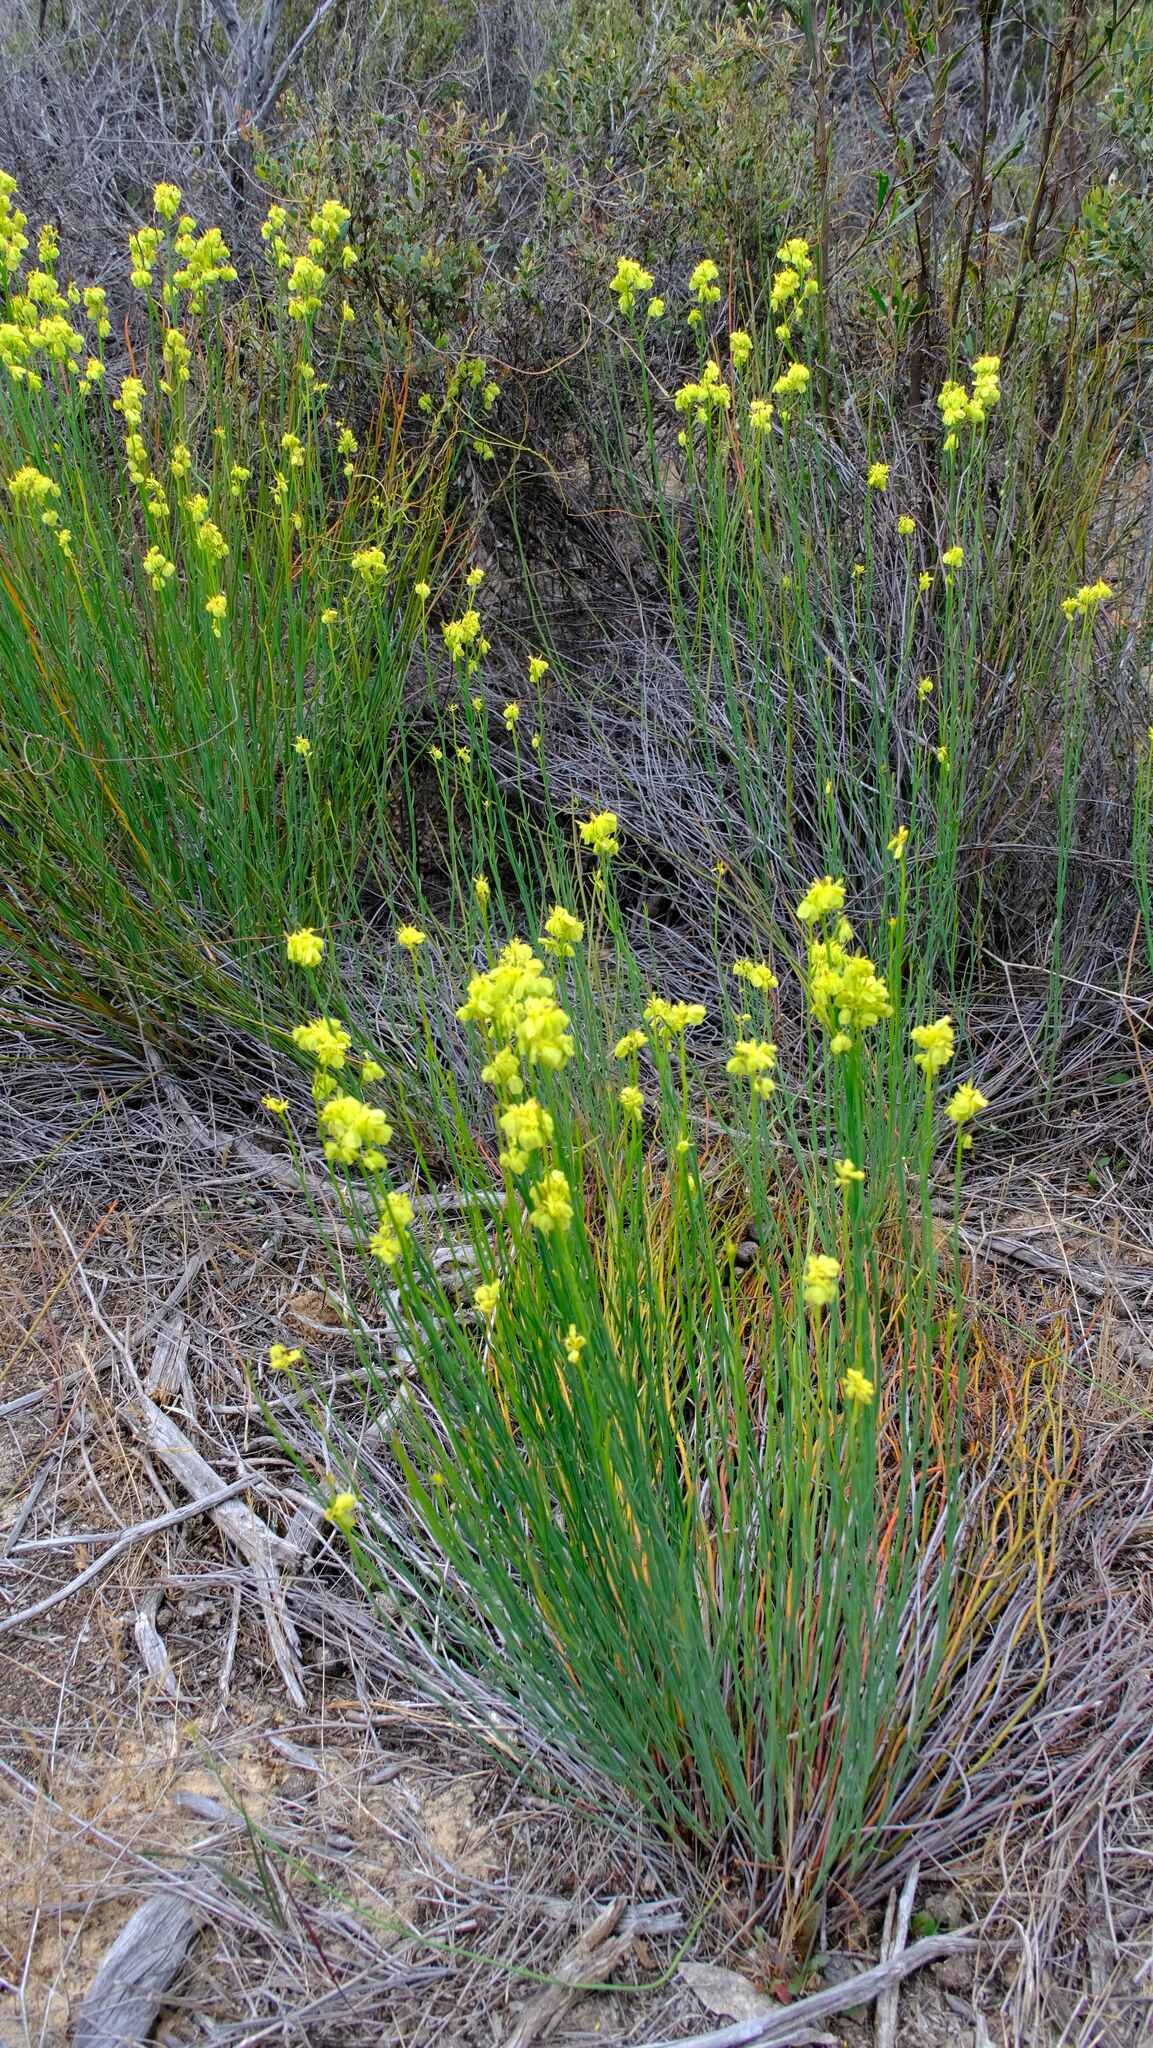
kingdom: Plantae
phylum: Tracheophyta
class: Magnoliopsida
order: Saxifragales
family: Haloragaceae
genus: Glischrocaryon
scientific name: Glischrocaryon behrii
